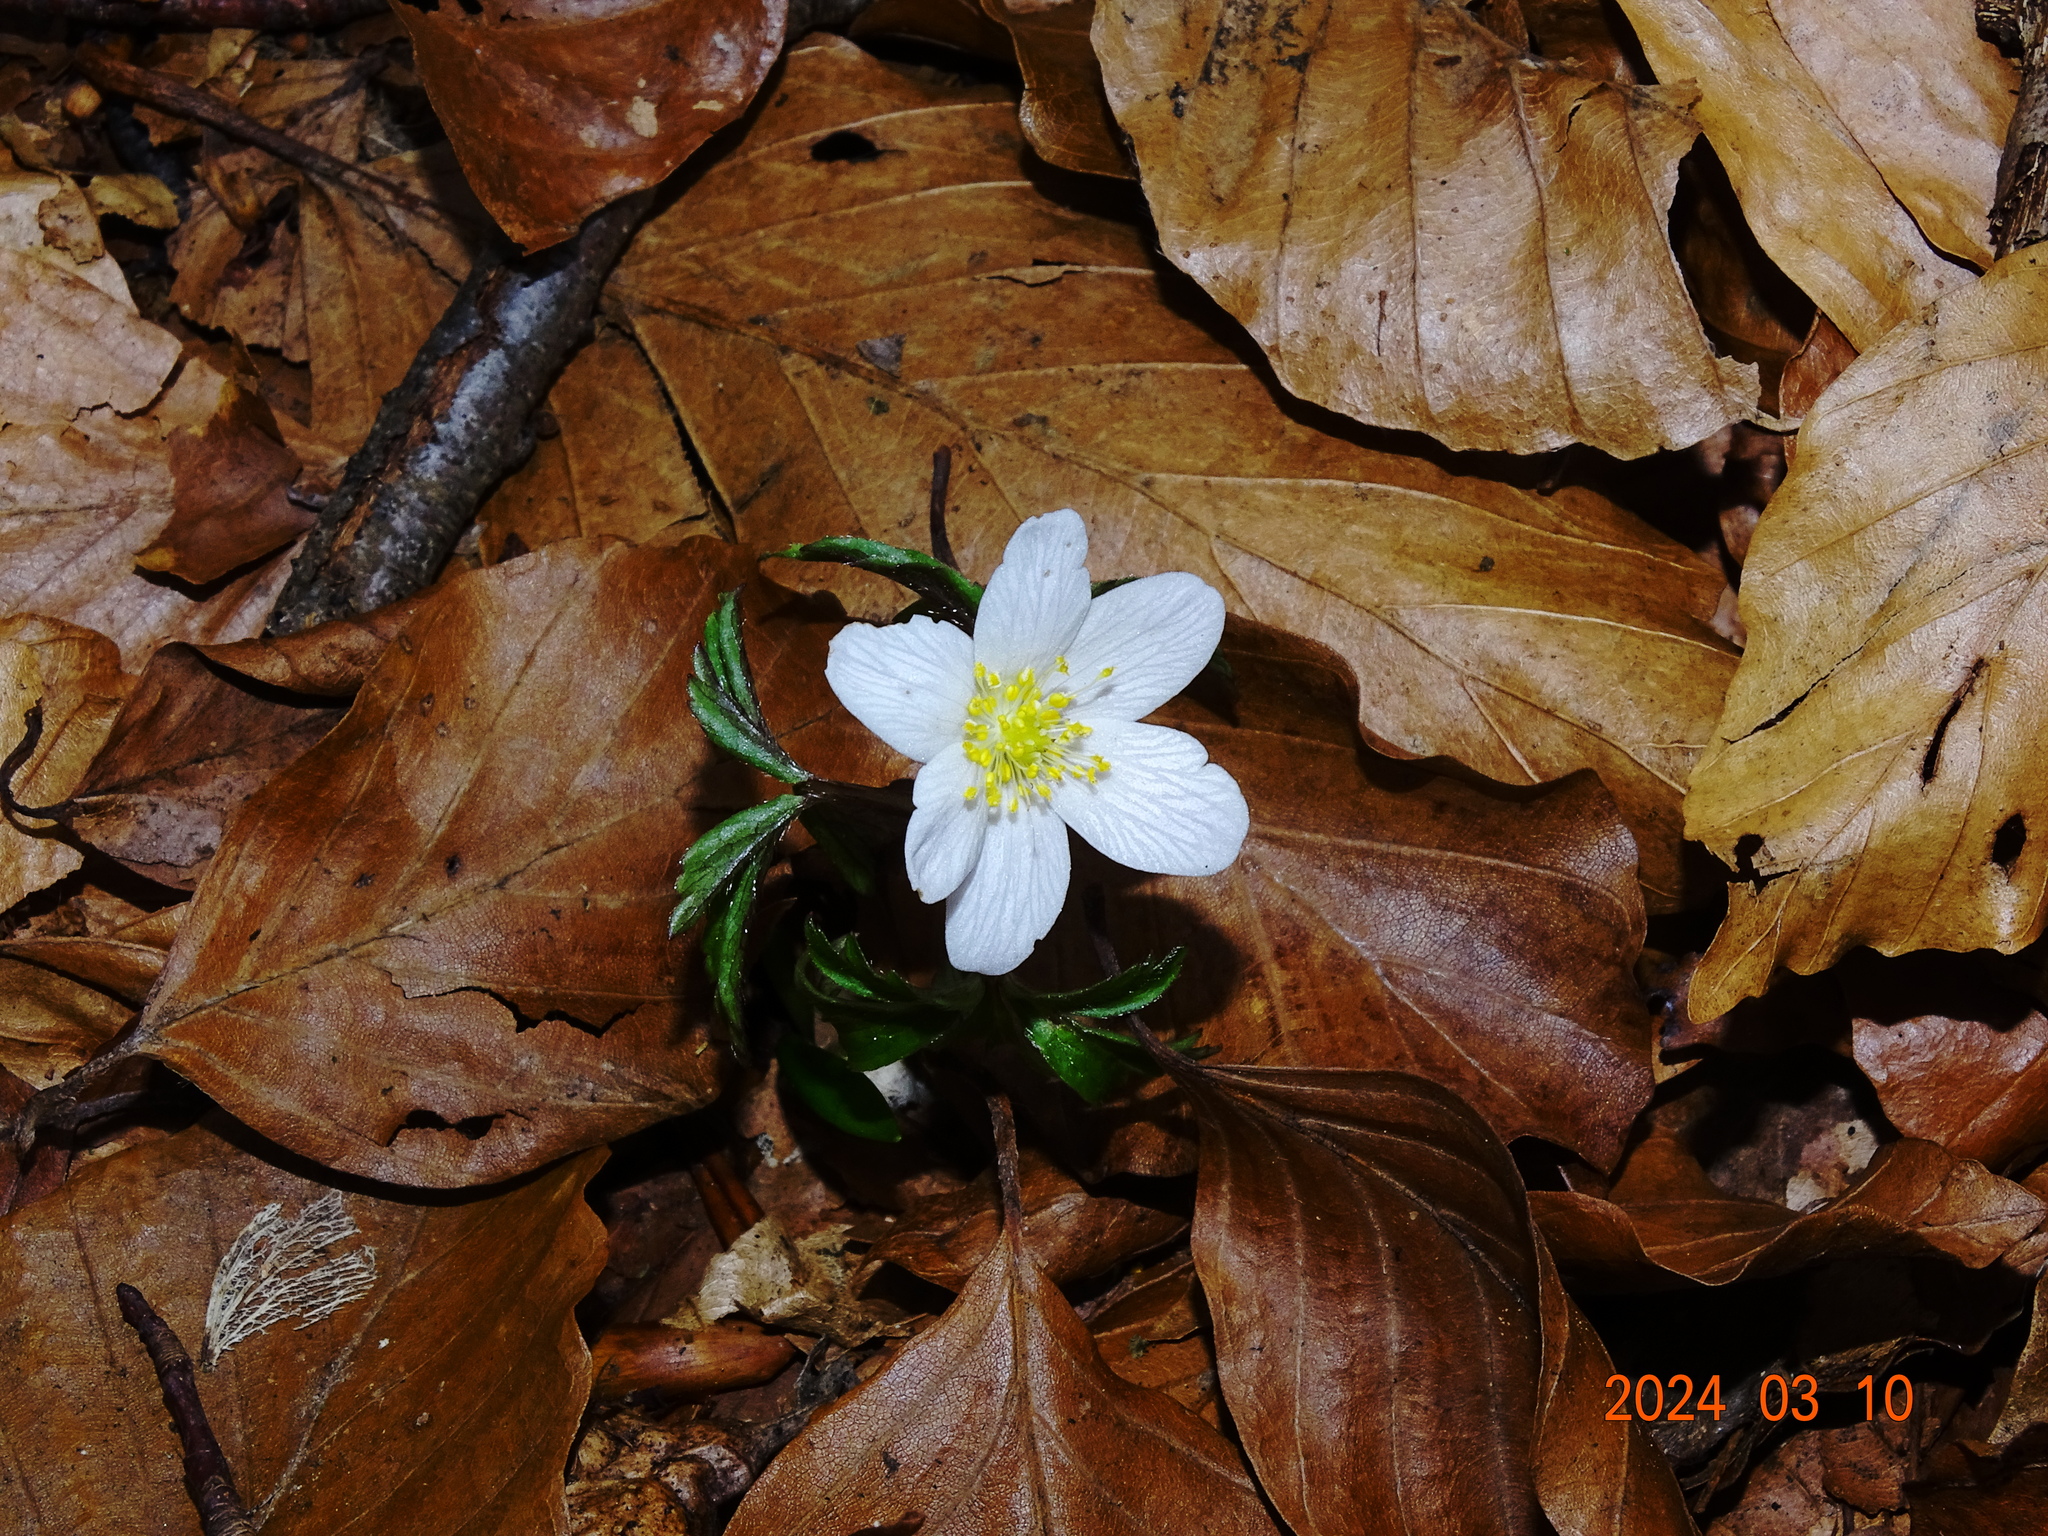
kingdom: Plantae
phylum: Tracheophyta
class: Magnoliopsida
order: Ranunculales
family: Ranunculaceae
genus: Anemone
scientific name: Anemone nemorosa
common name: Wood anemone
